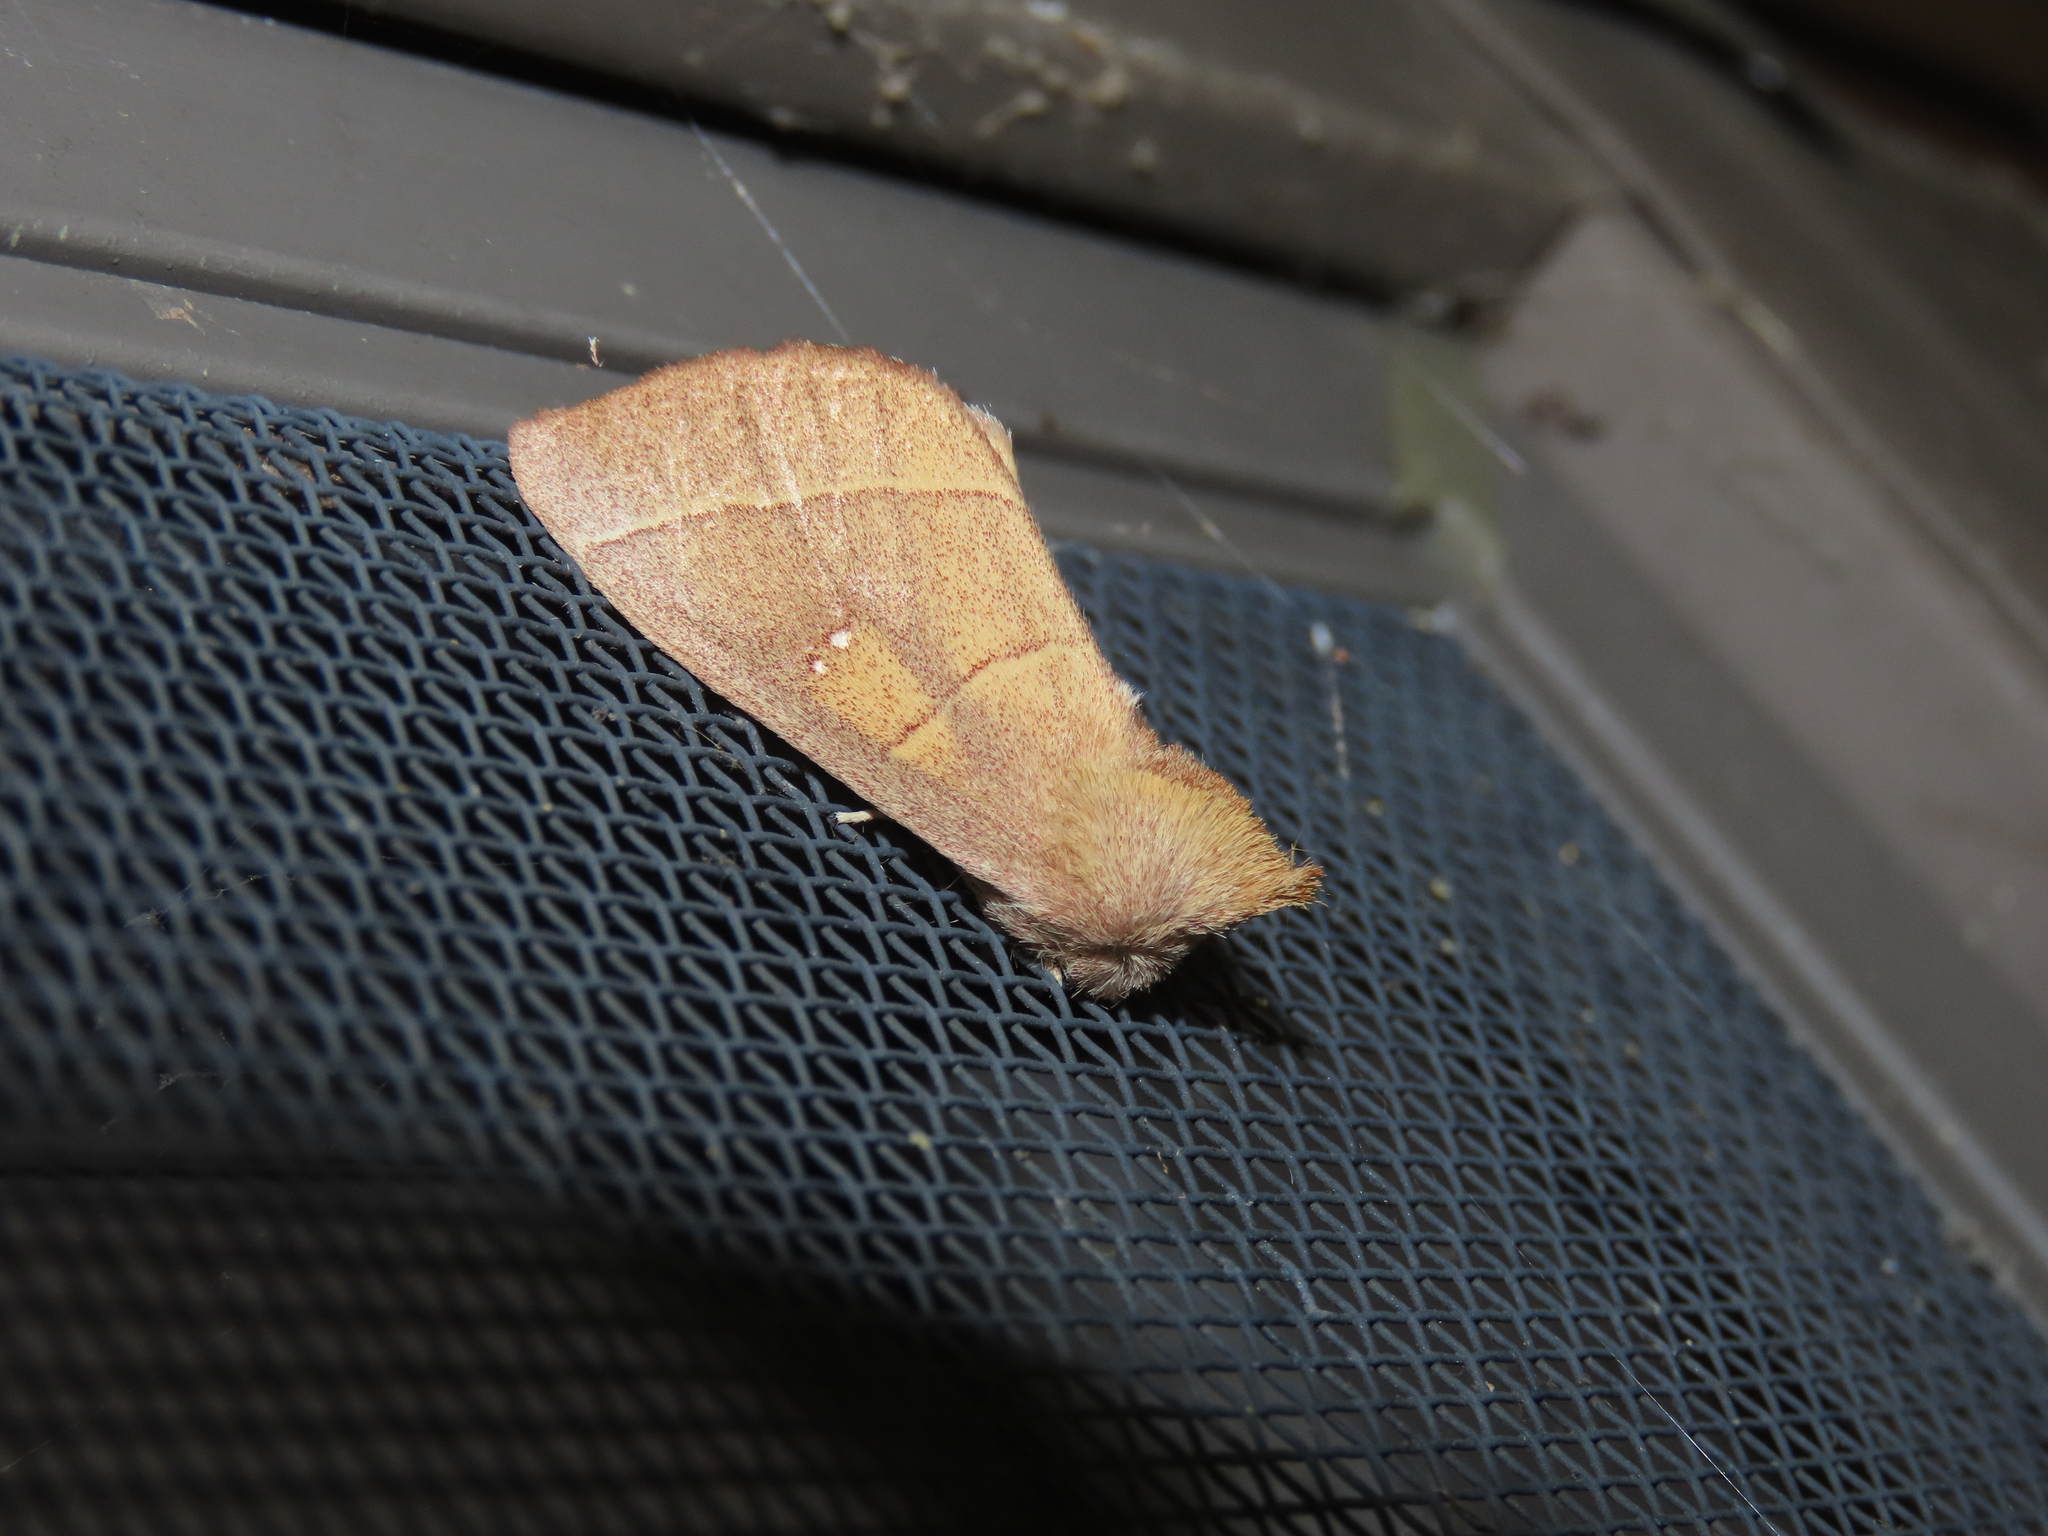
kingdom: Animalia
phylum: Arthropoda
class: Insecta
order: Lepidoptera
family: Notodontidae
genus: Nadata
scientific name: Nadata gibbosa
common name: White-dotted prominent
